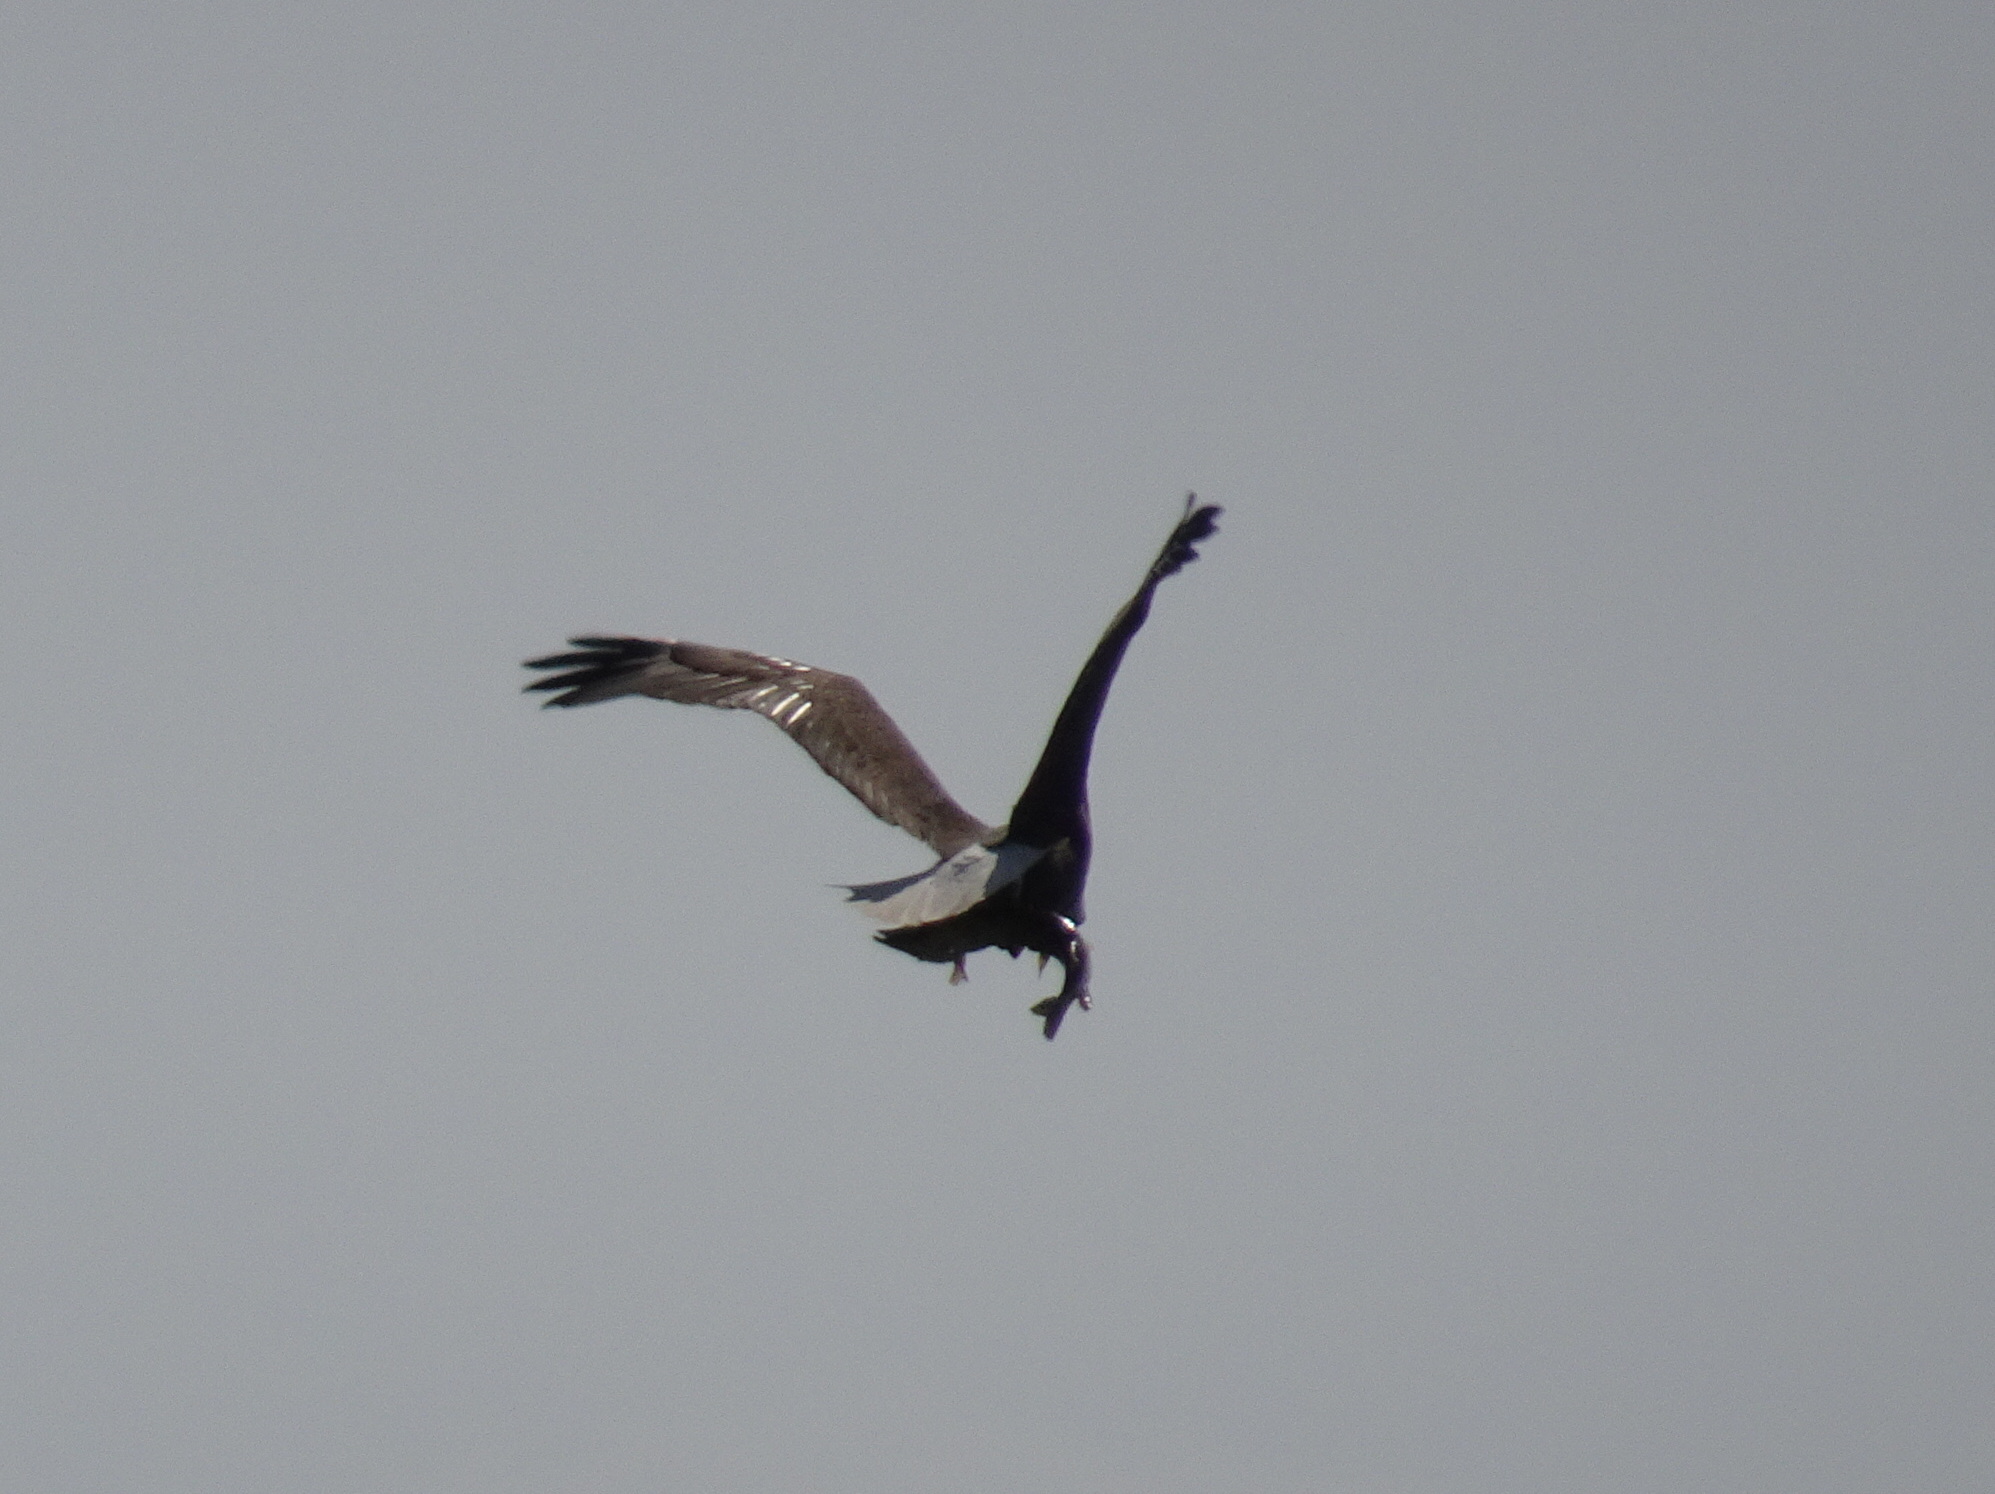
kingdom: Animalia
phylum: Chordata
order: Esociformes
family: Esocidae
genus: Esox
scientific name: Esox lucius
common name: Northern pike
